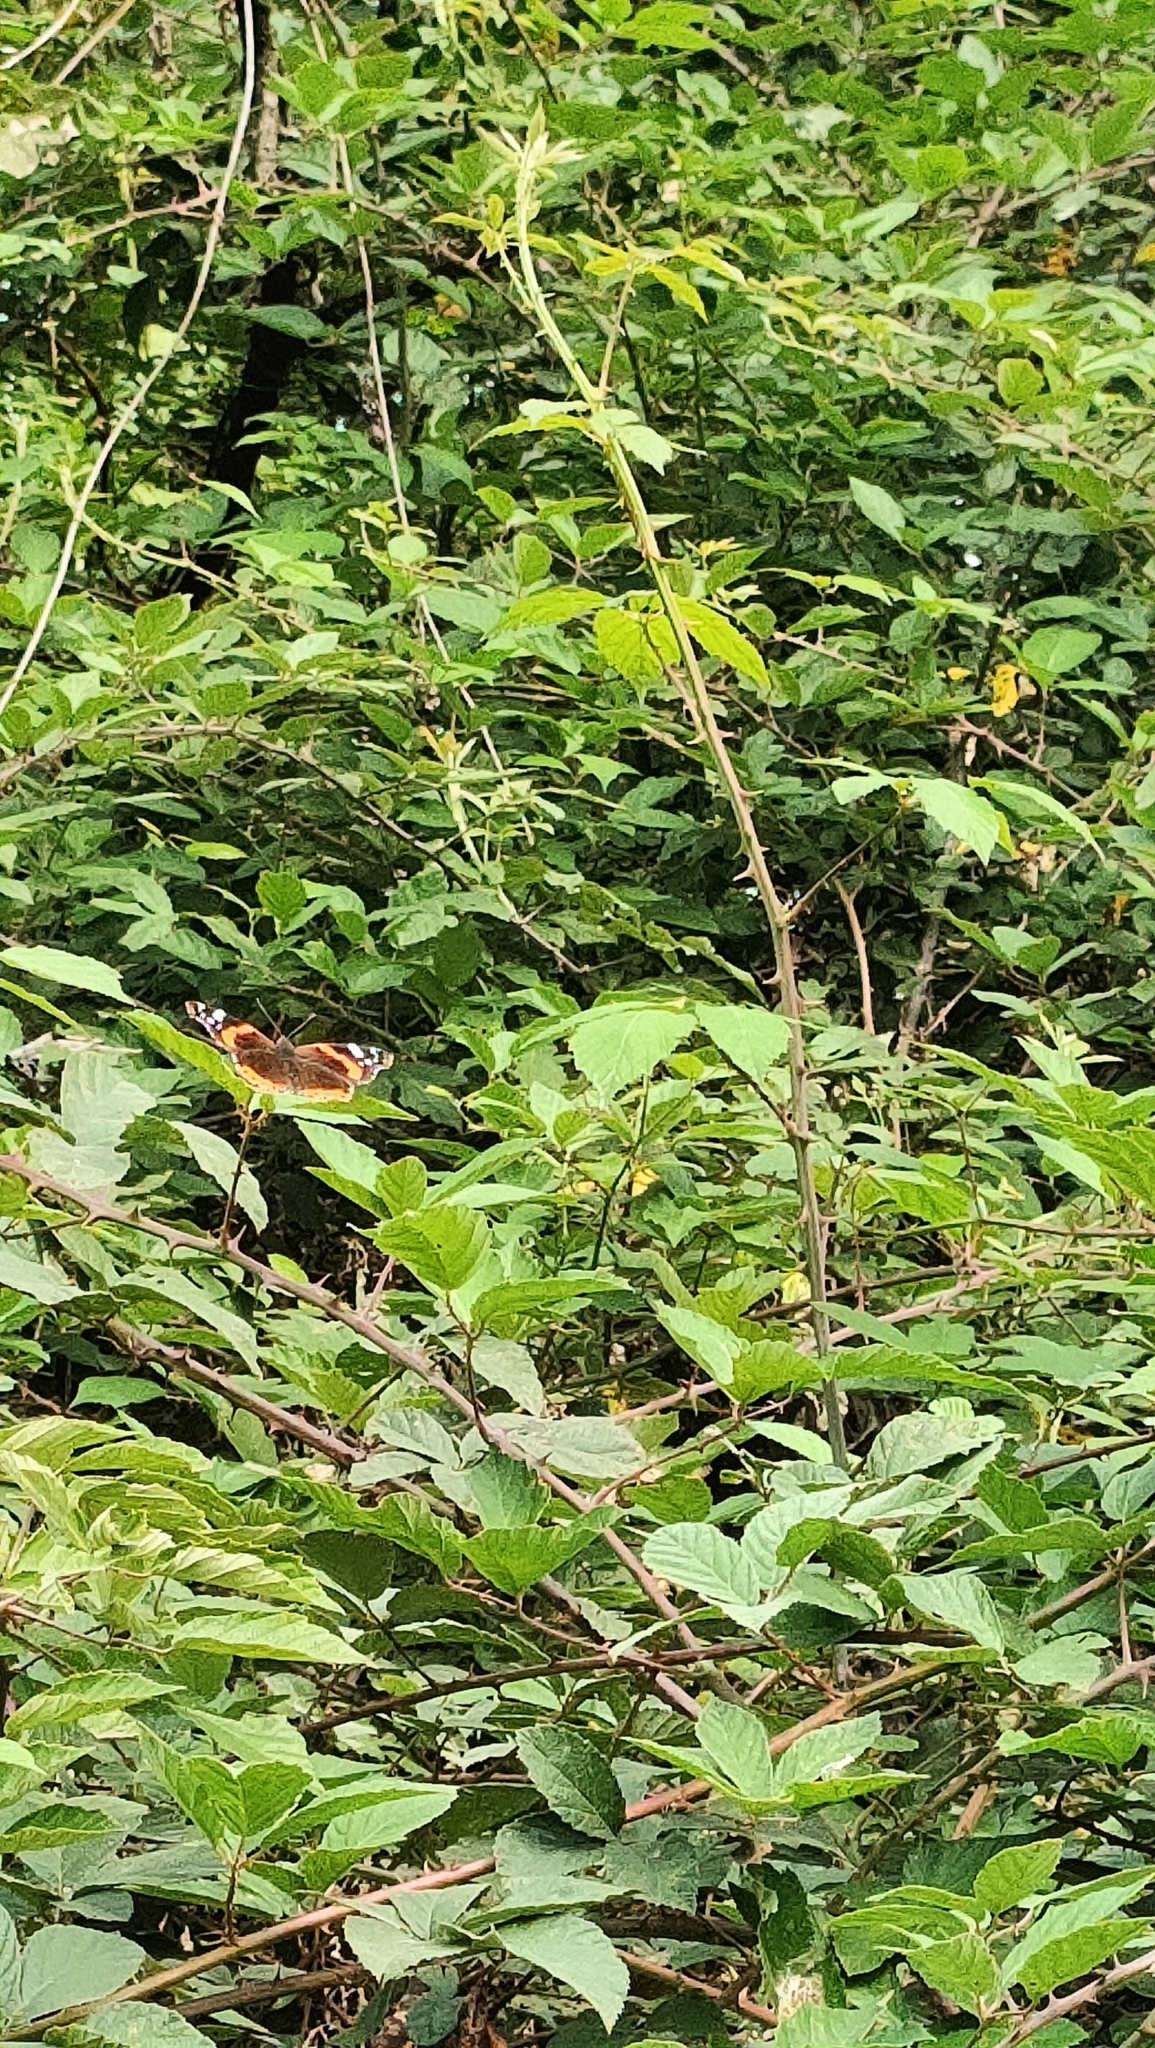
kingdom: Animalia
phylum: Arthropoda
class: Insecta
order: Lepidoptera
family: Nymphalidae
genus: Vanessa
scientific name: Vanessa atalanta
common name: Red admiral
